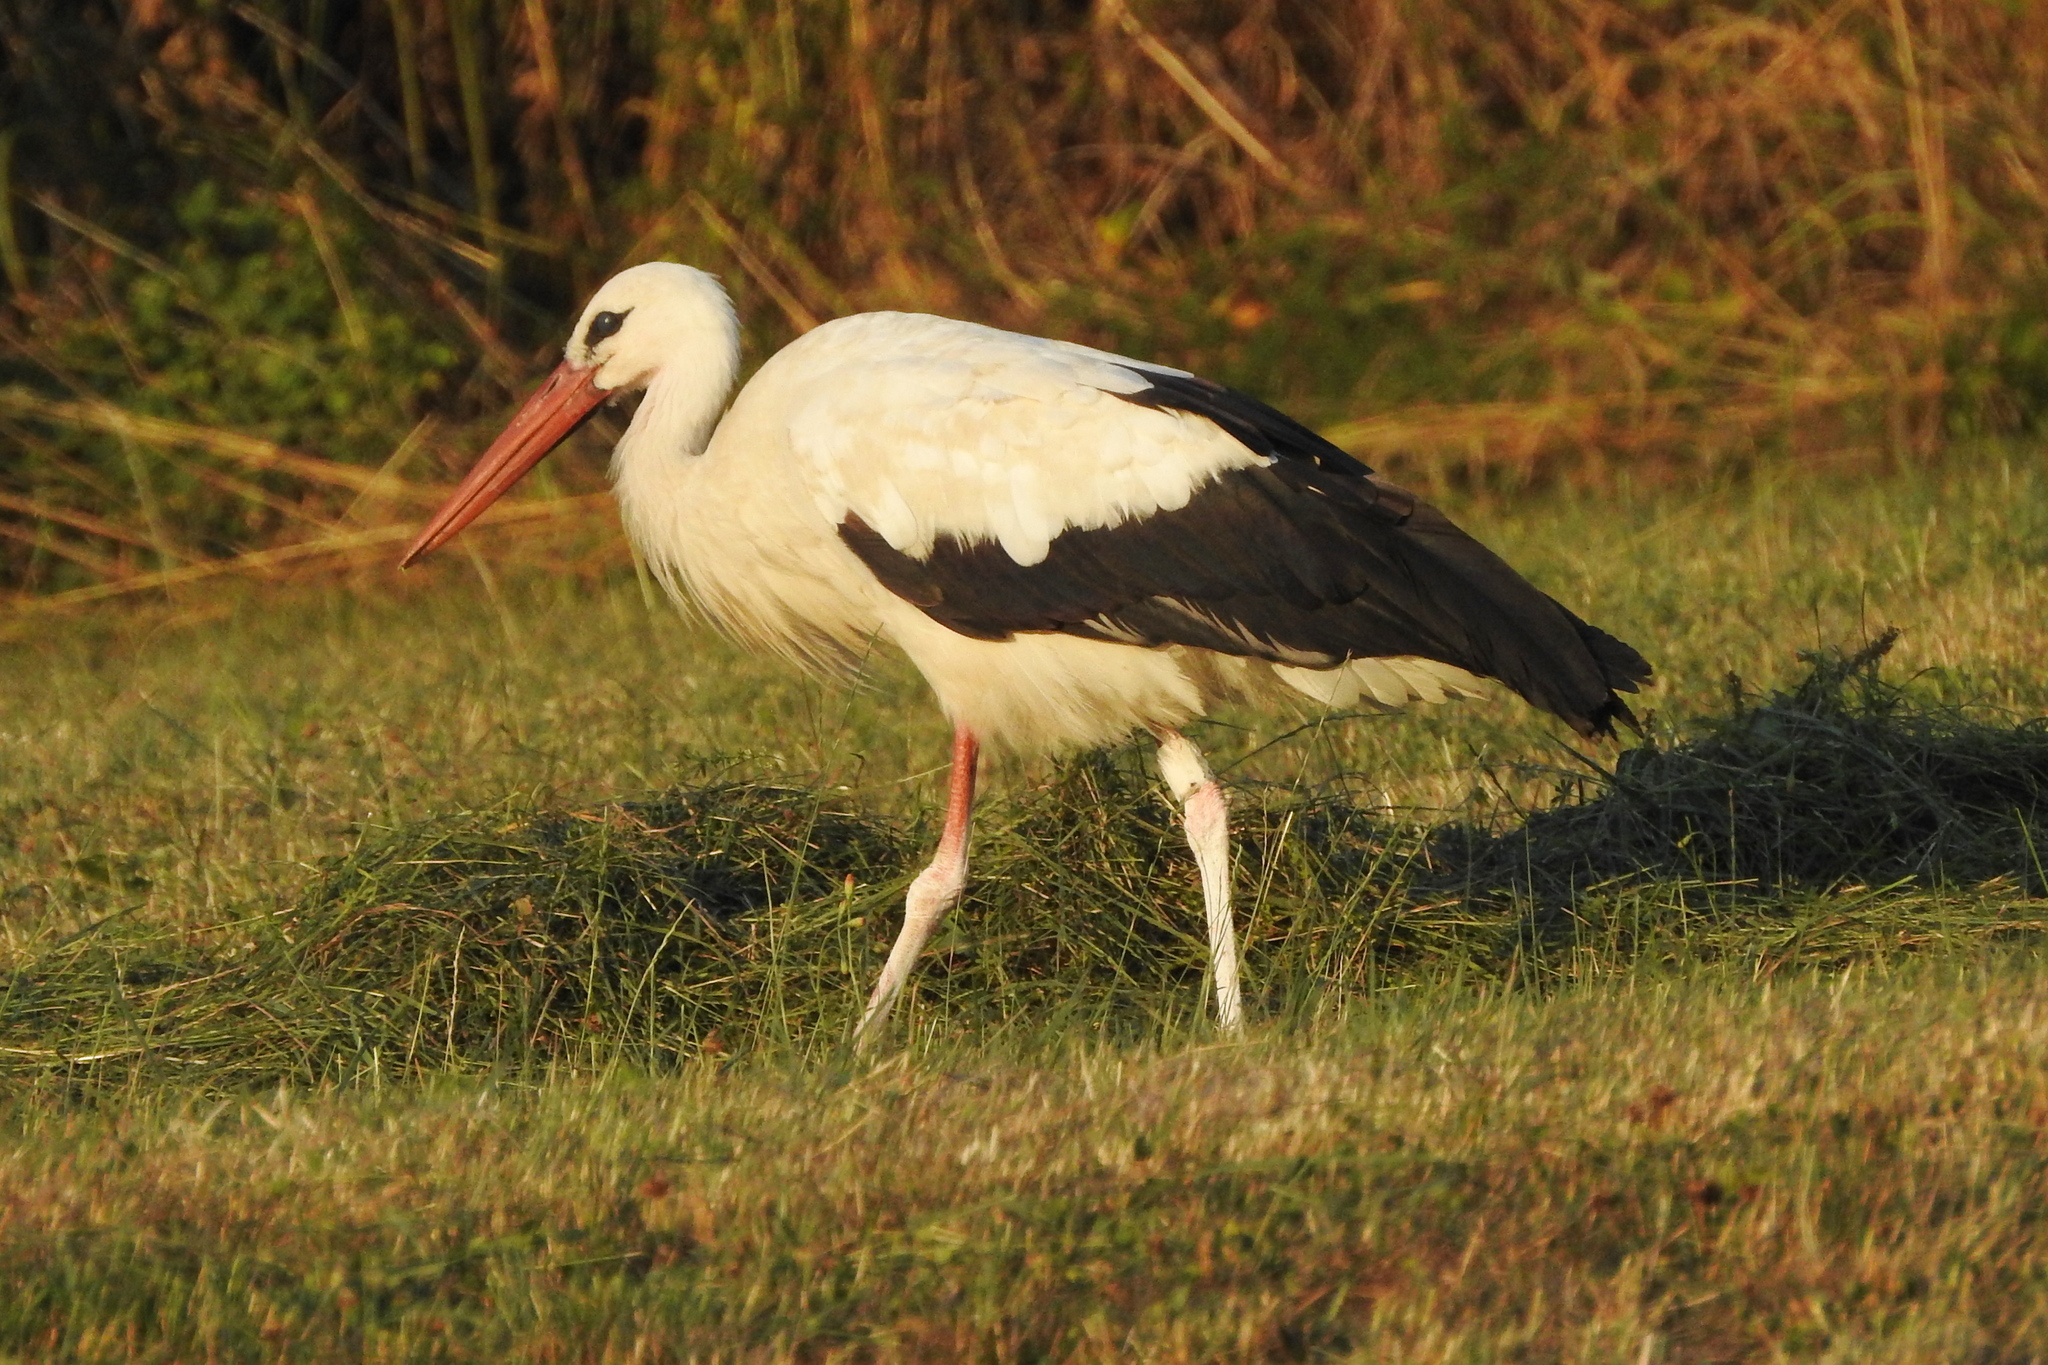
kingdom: Animalia
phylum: Chordata
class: Aves
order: Ciconiiformes
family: Ciconiidae
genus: Ciconia
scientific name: Ciconia ciconia
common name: White stork
